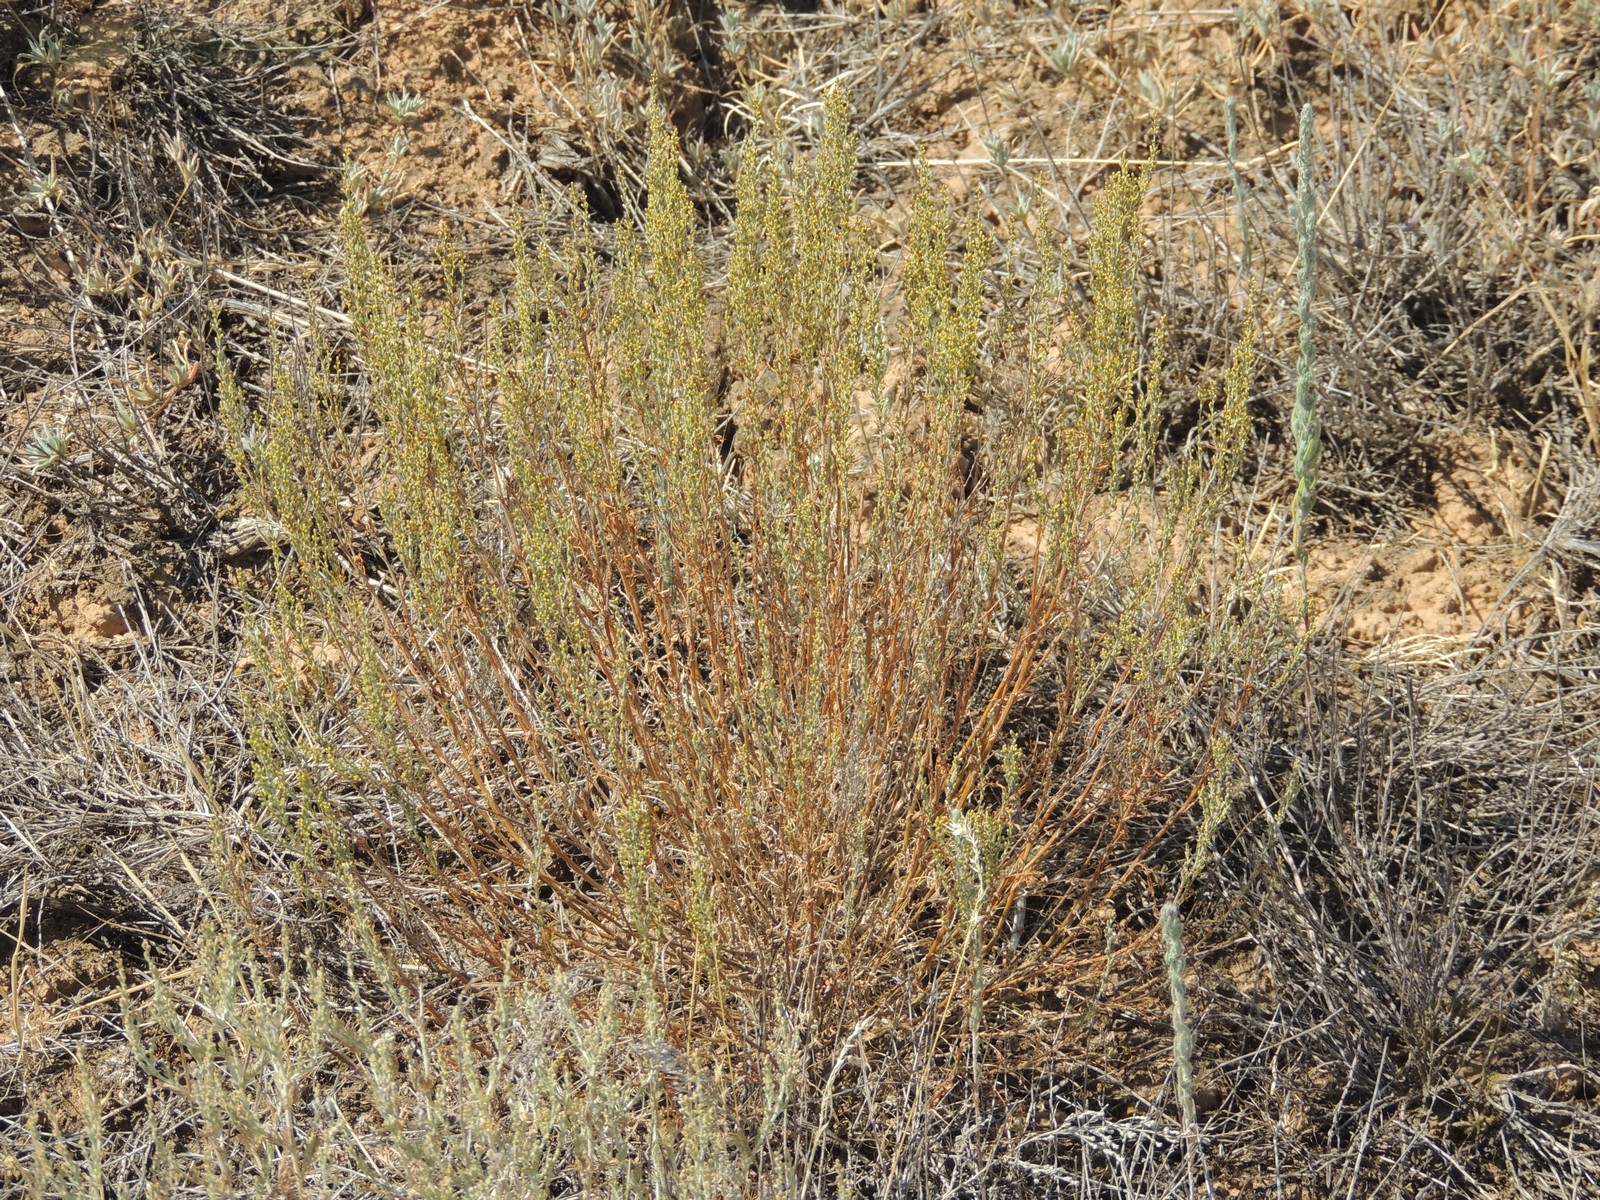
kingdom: Plantae
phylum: Tracheophyta
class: Magnoliopsida
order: Asterales
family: Asteraceae
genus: Artemisia
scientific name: Artemisia pauciflora
